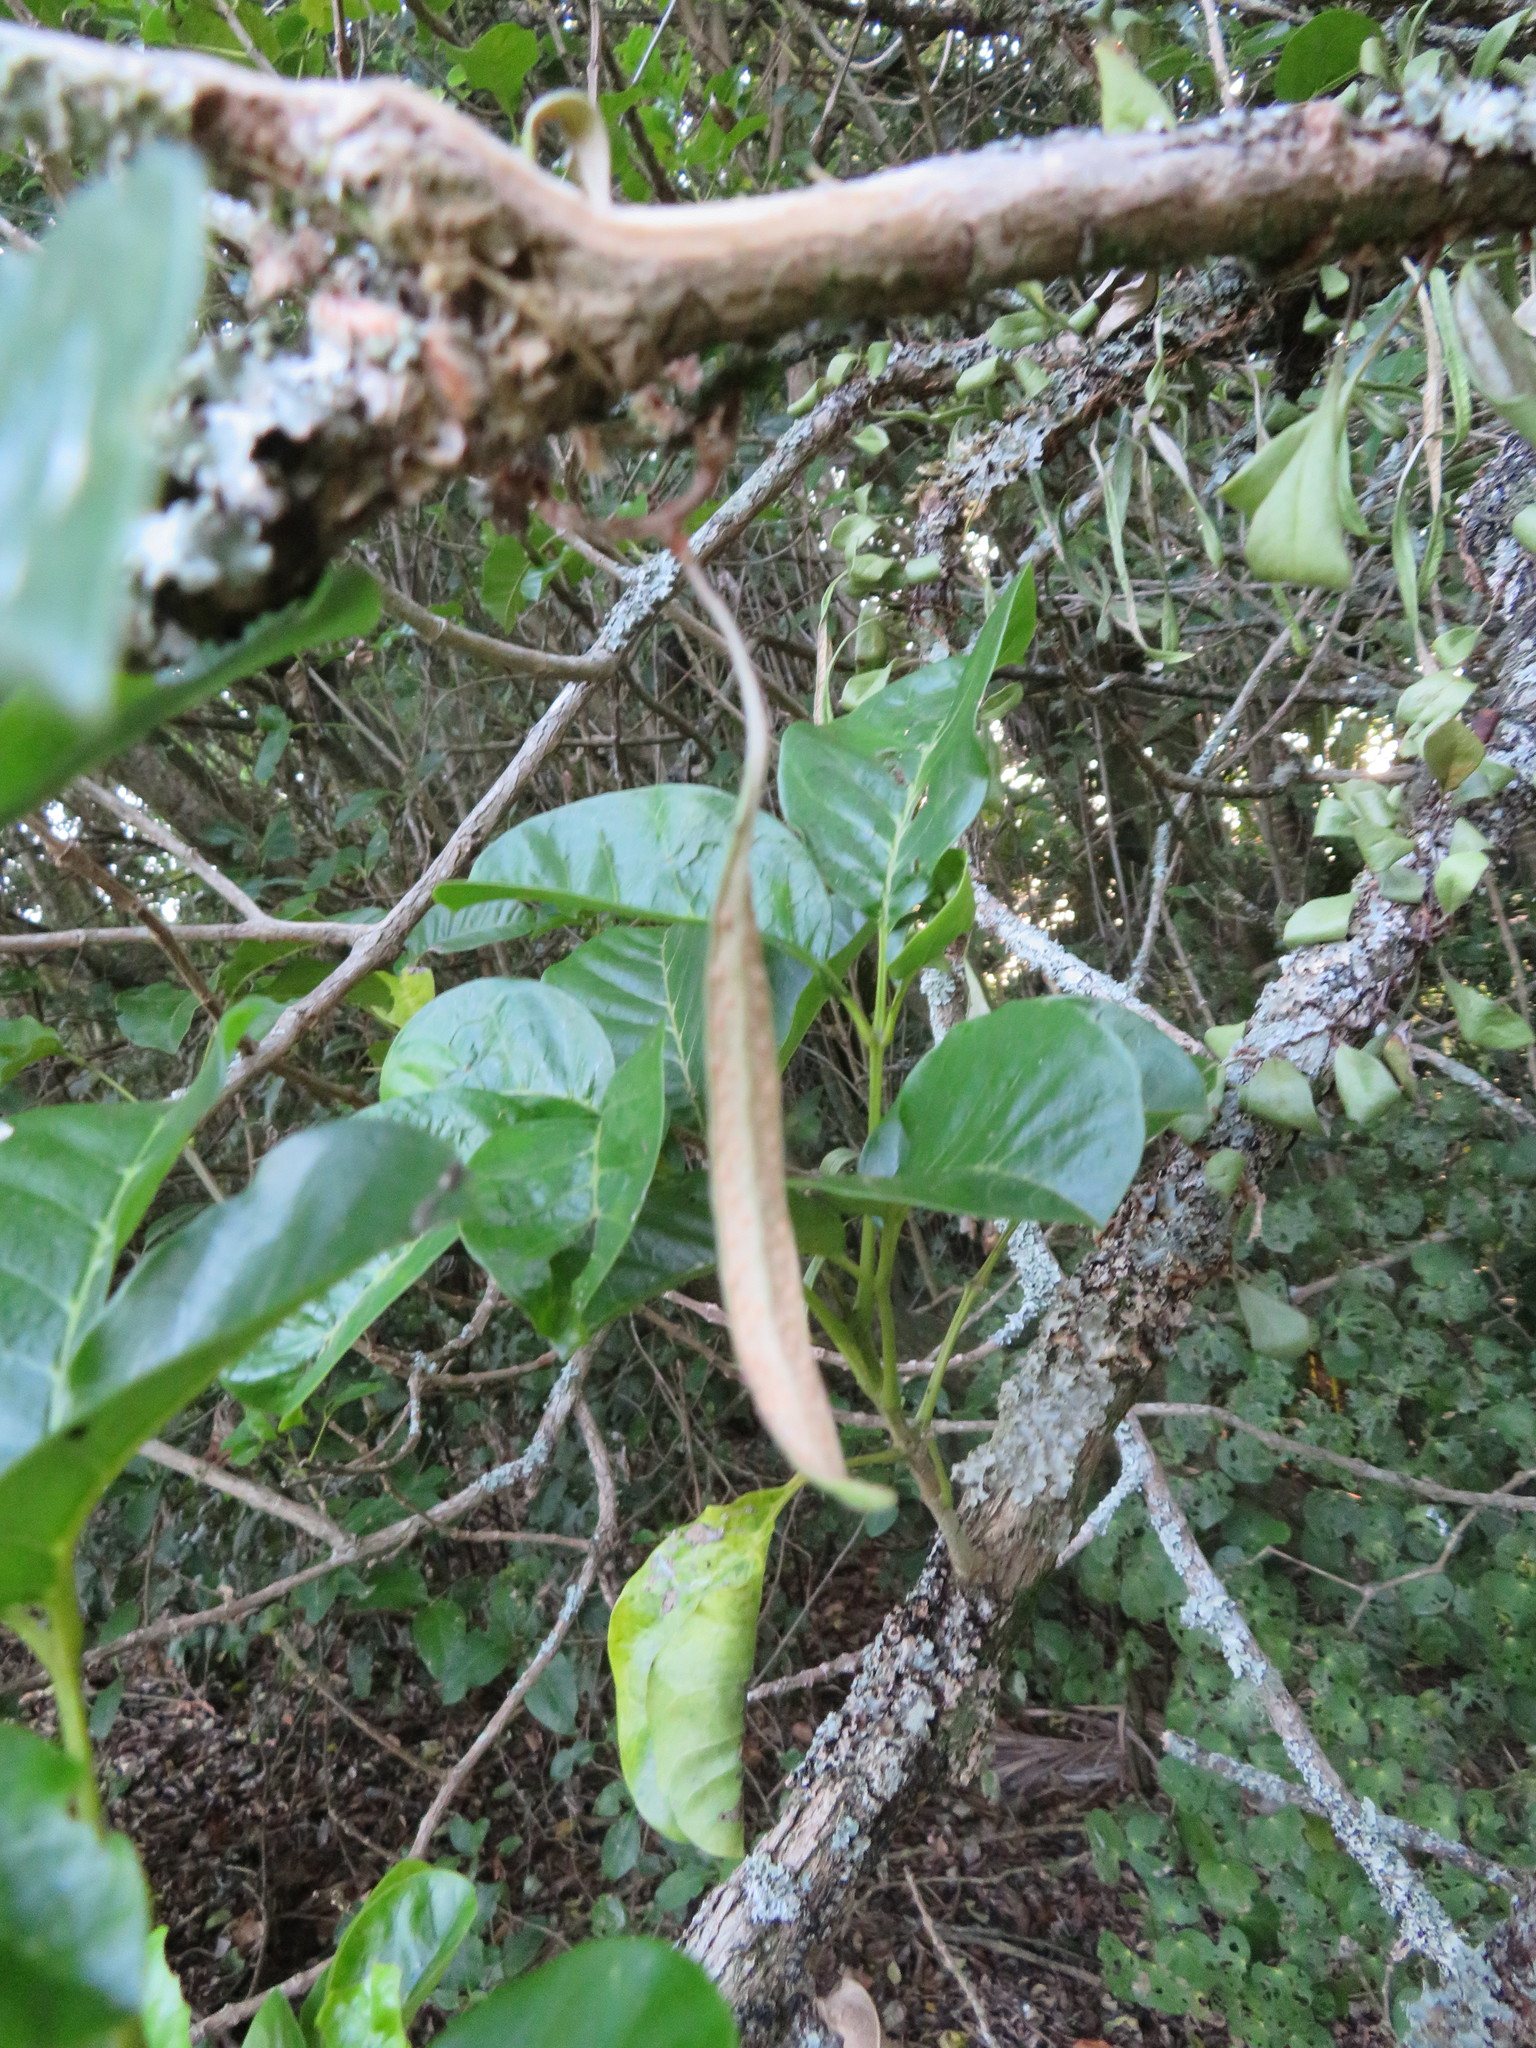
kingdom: Plantae
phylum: Tracheophyta
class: Magnoliopsida
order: Lamiales
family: Lamiaceae
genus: Vitex
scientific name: Vitex lucens
